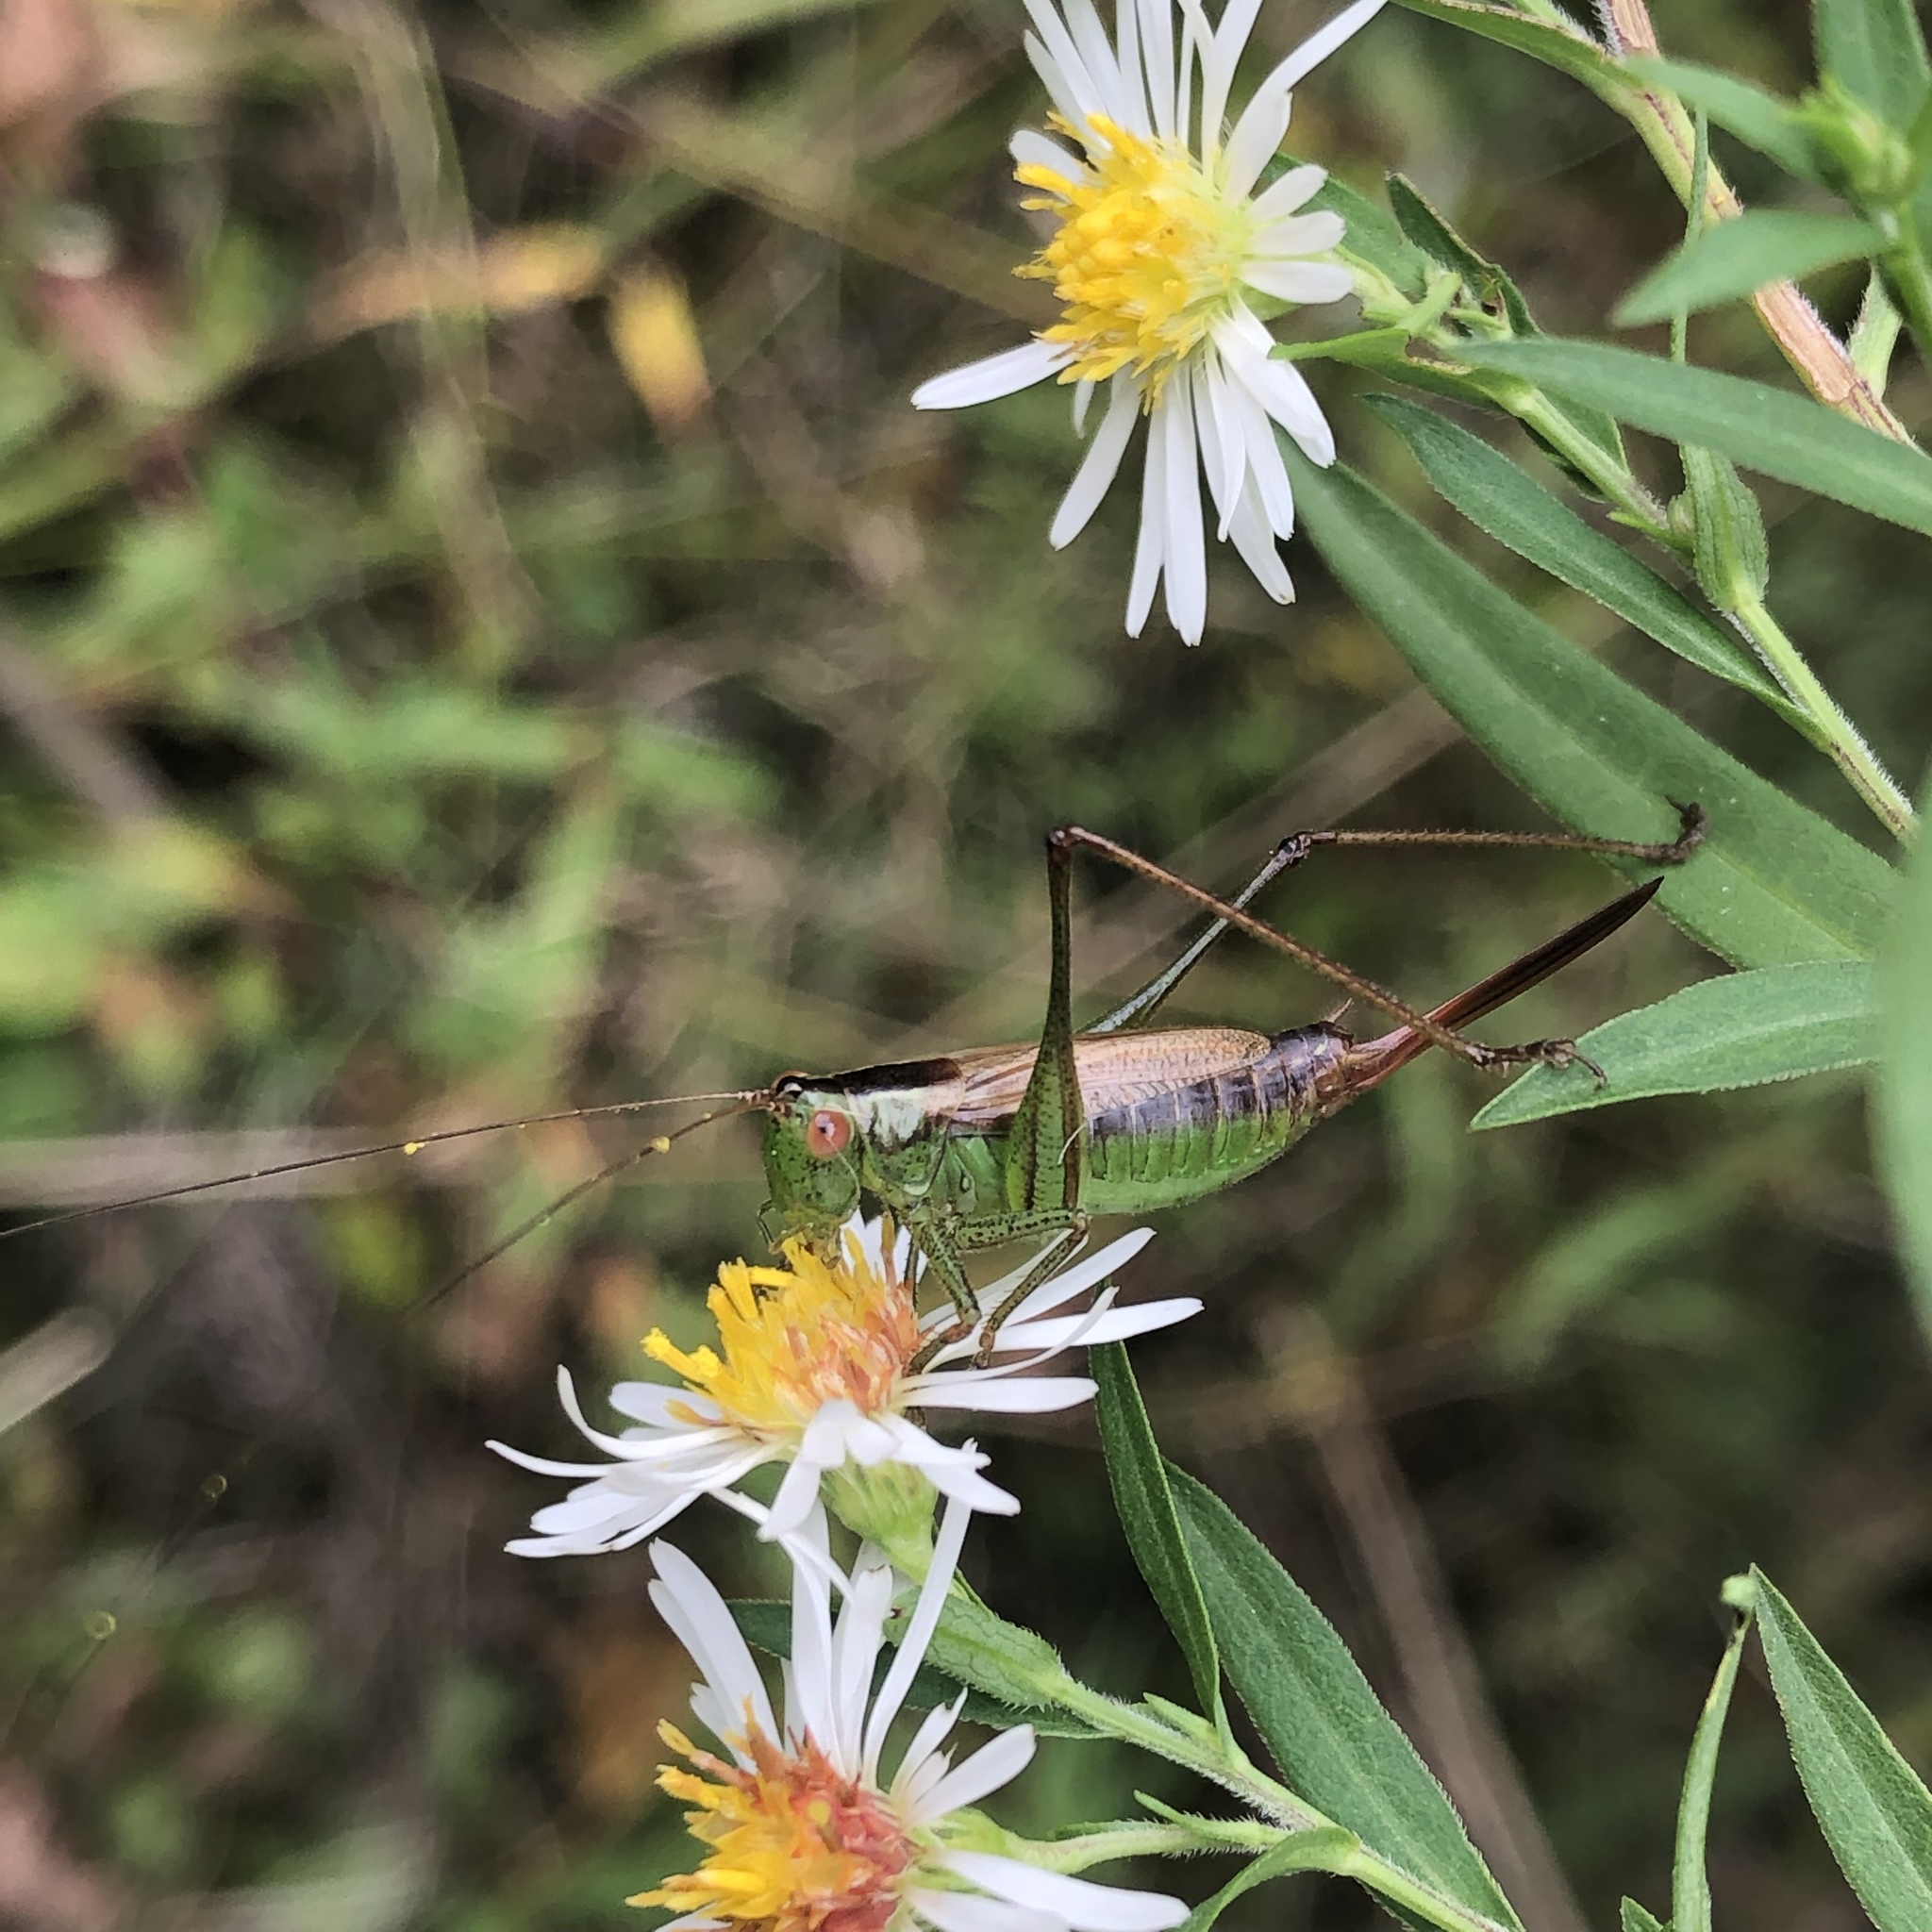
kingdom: Animalia
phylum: Arthropoda
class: Insecta
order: Orthoptera
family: Tettigoniidae
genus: Conocephalus
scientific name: Conocephalus brevipennis
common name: Short-winged meadow katydid
